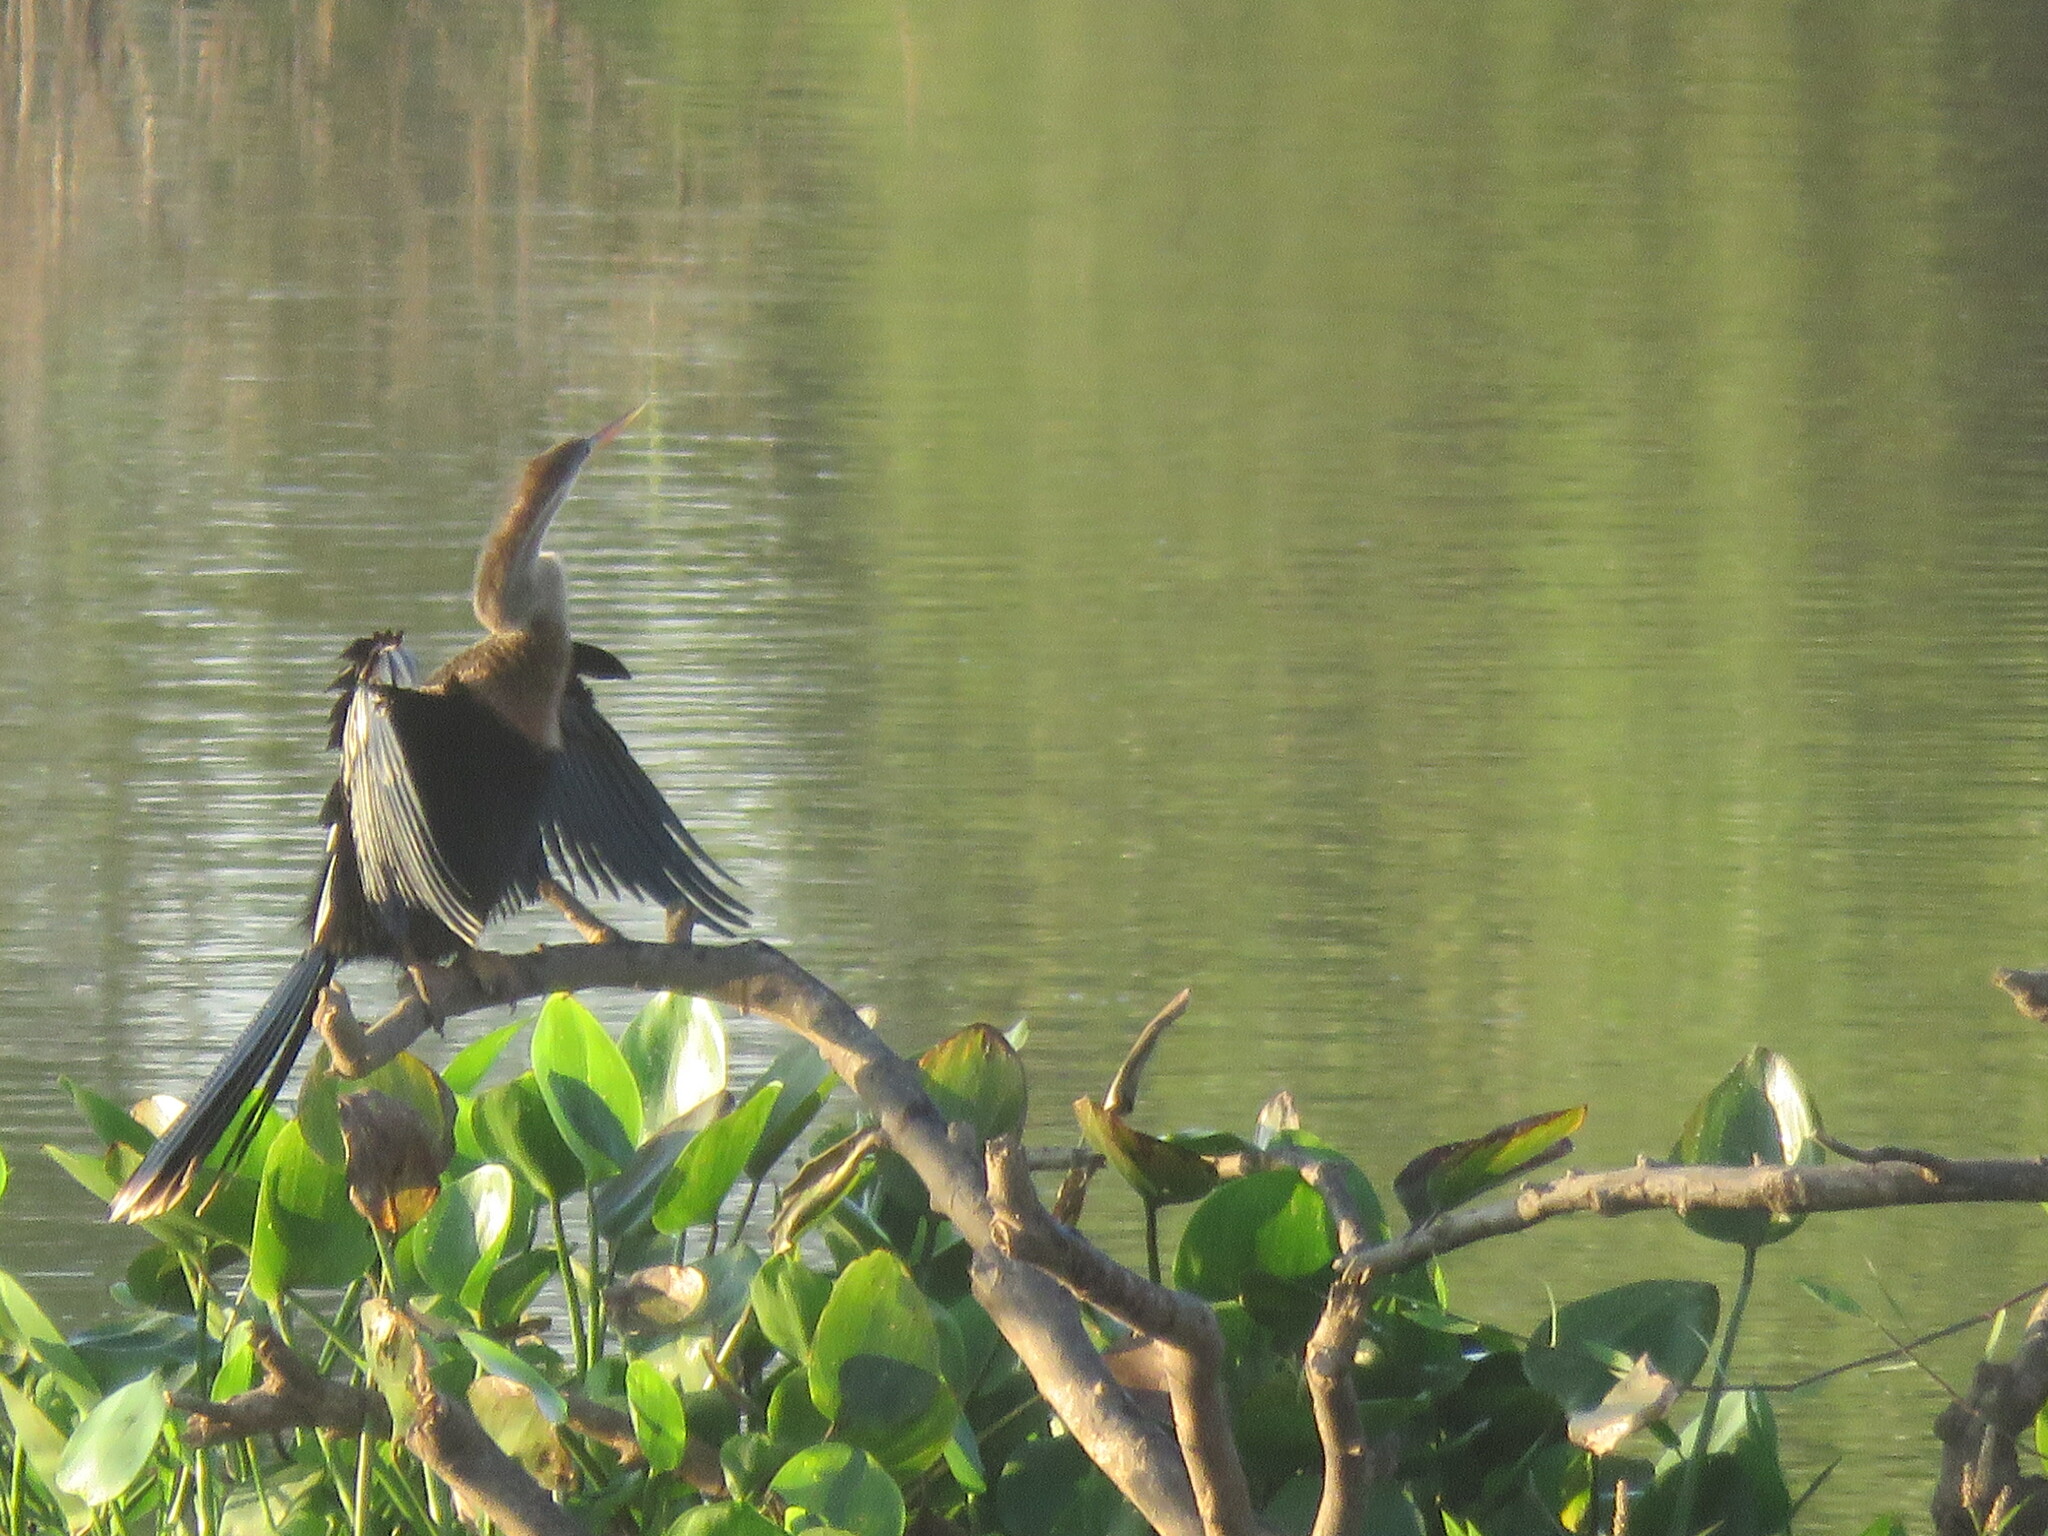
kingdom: Animalia
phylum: Chordata
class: Aves
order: Suliformes
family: Anhingidae
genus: Anhinga
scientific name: Anhinga anhinga
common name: Anhinga
